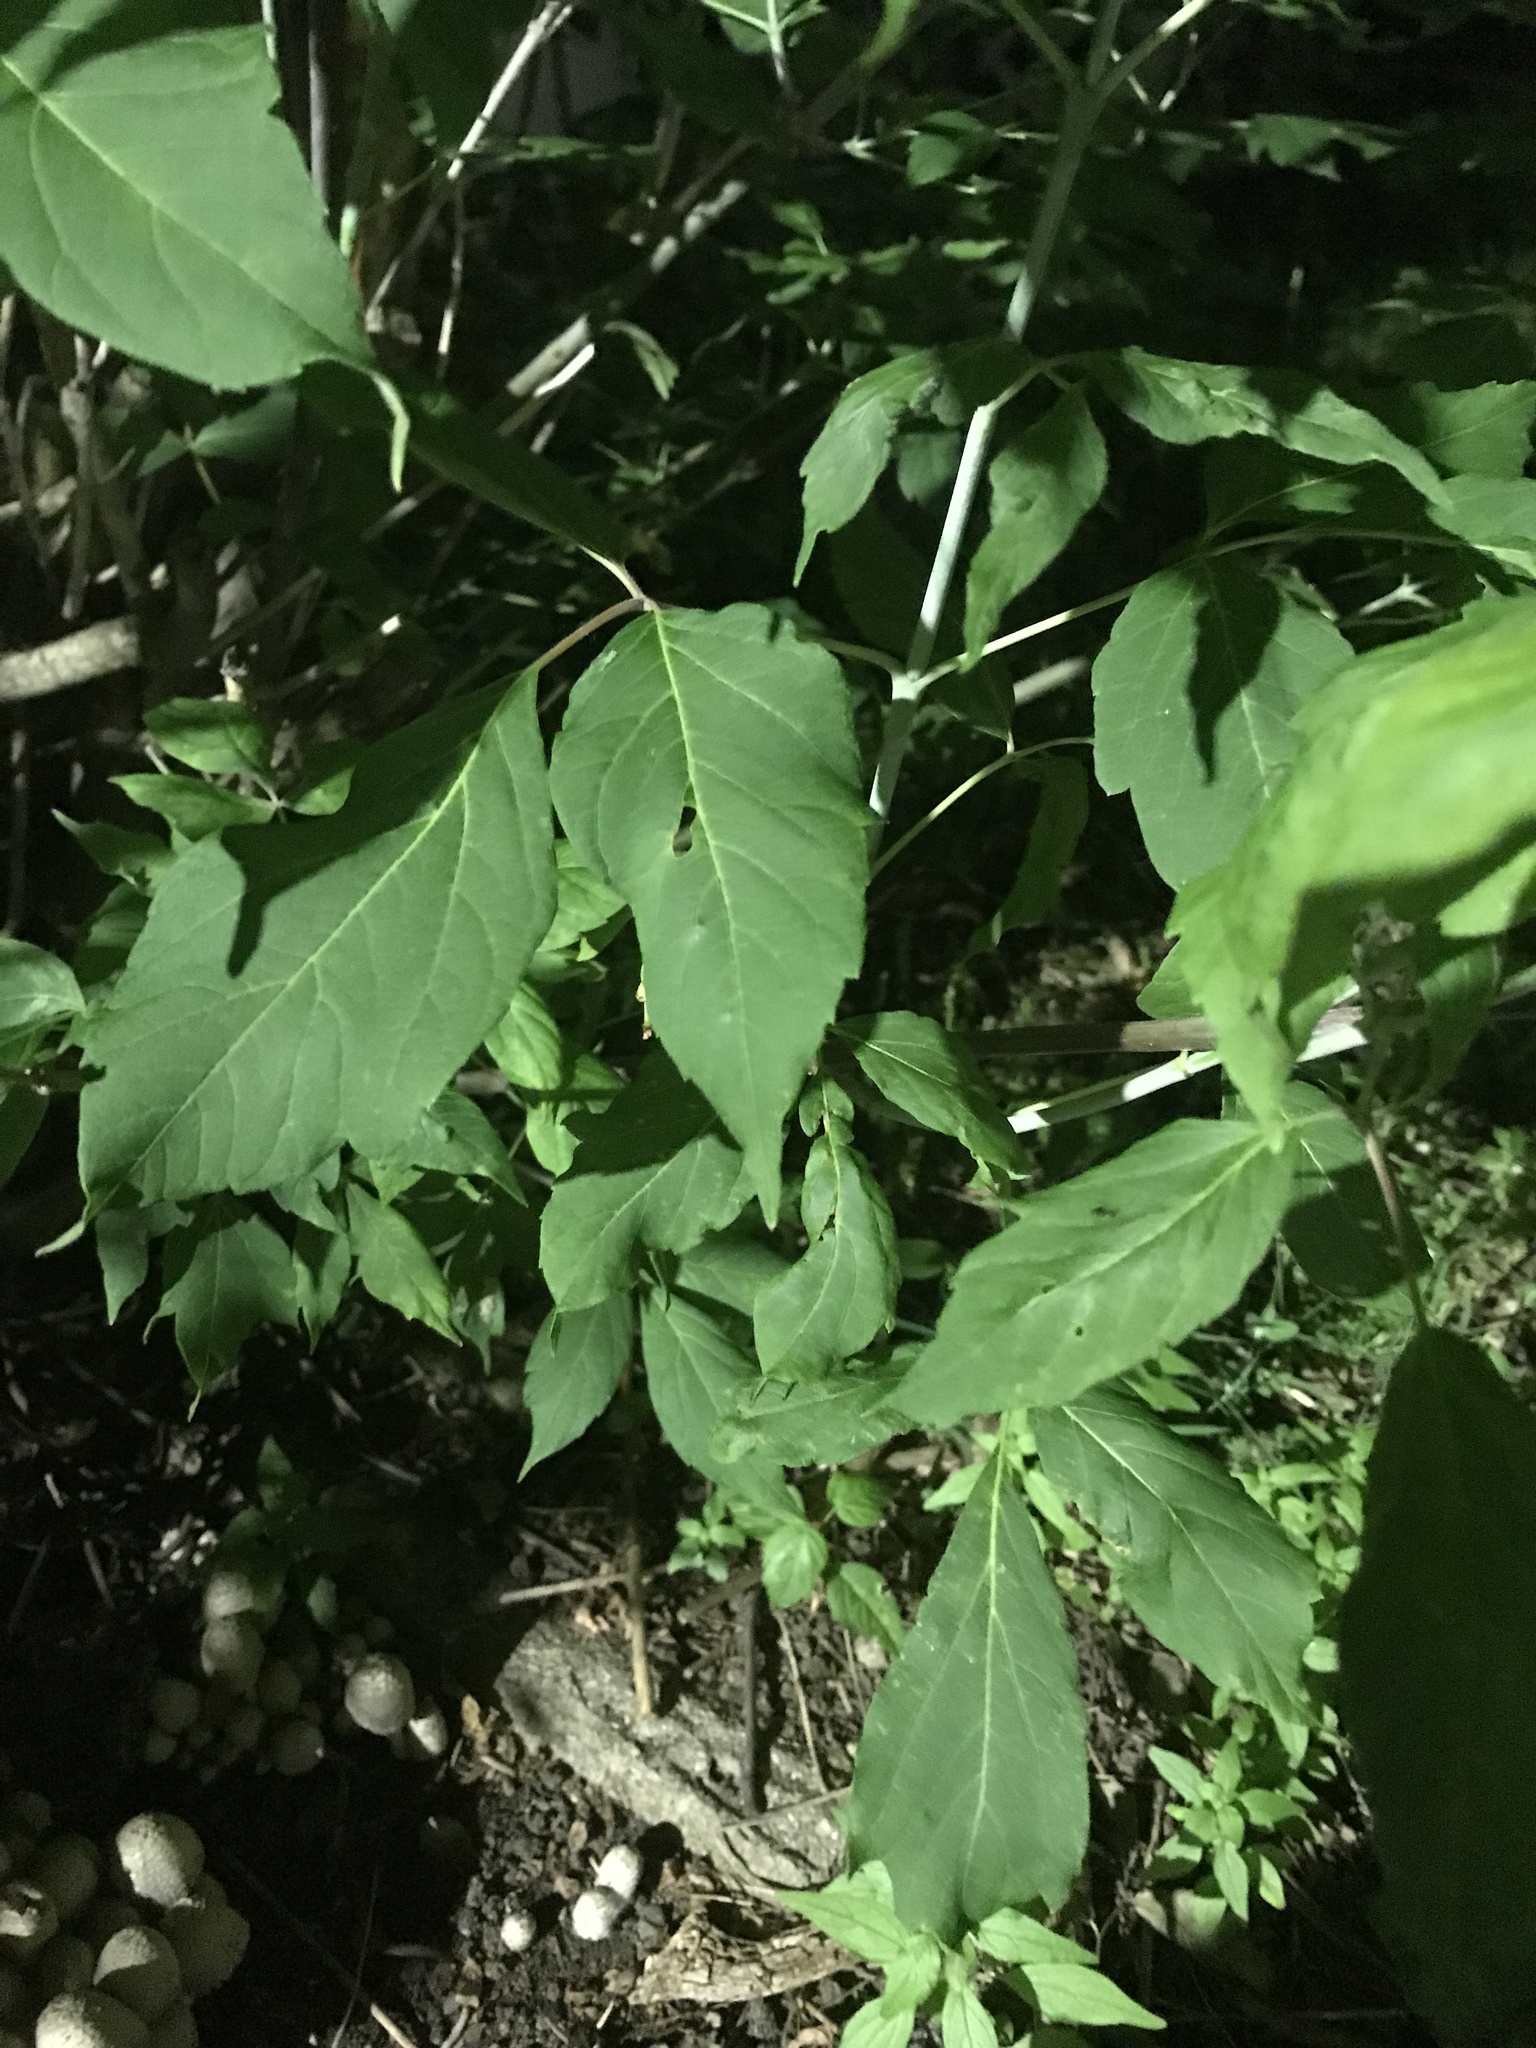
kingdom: Plantae
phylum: Tracheophyta
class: Magnoliopsida
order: Sapindales
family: Sapindaceae
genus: Acer
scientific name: Acer negundo
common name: Ashleaf maple
